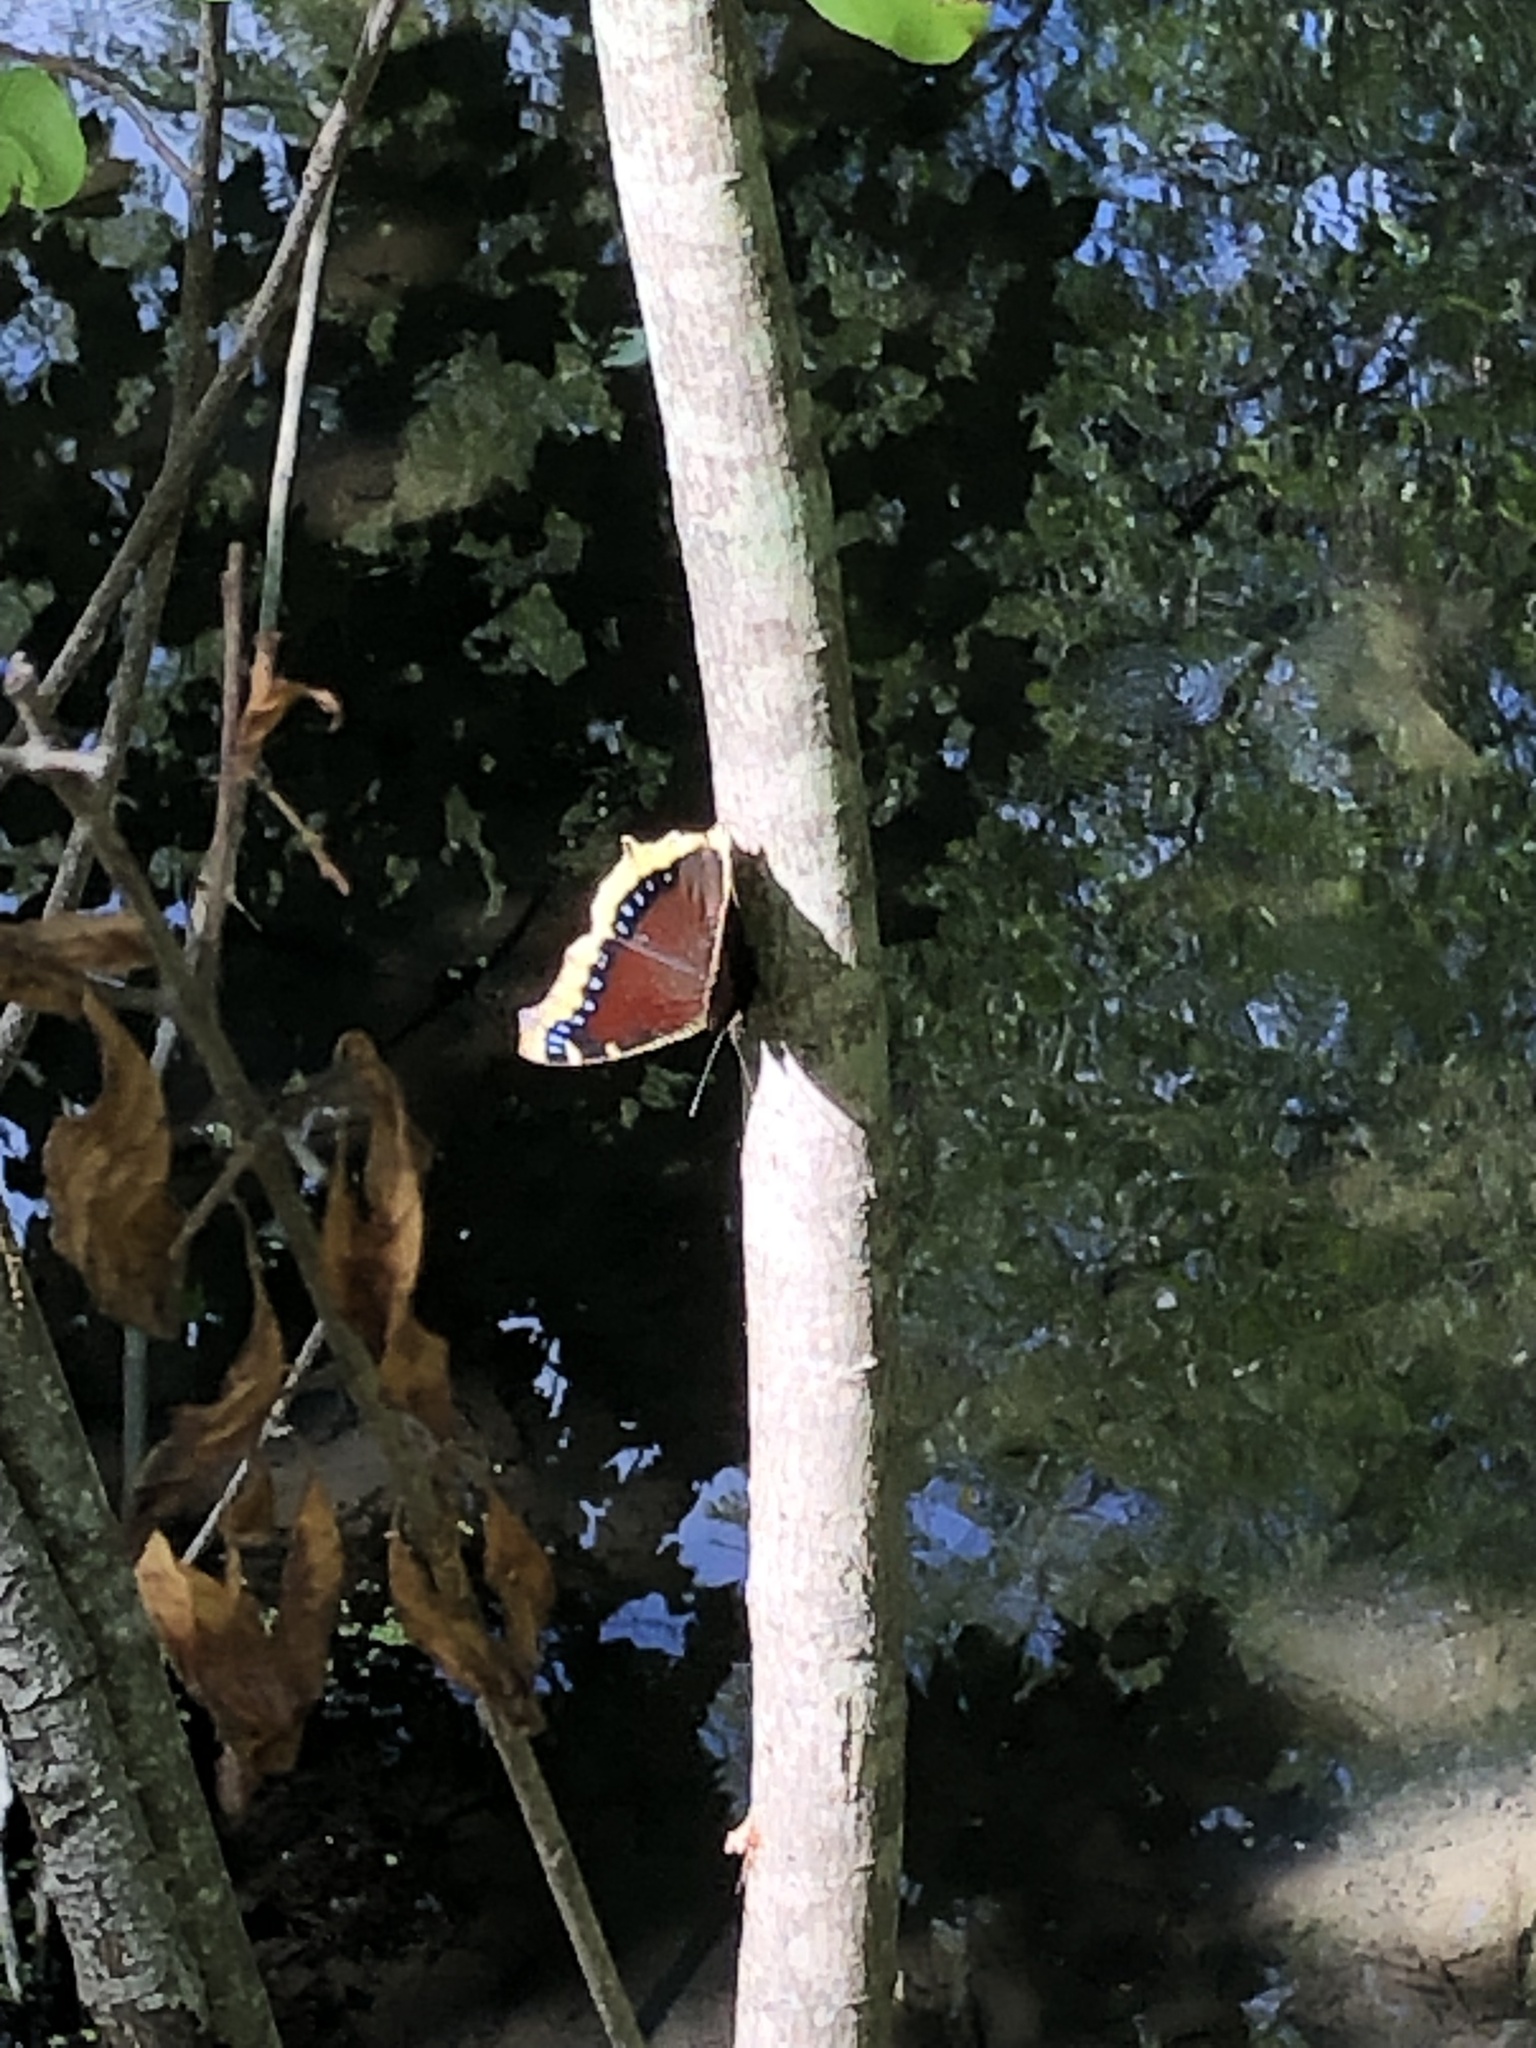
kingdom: Animalia
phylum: Arthropoda
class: Insecta
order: Lepidoptera
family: Nymphalidae
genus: Nymphalis
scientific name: Nymphalis antiopa
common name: Camberwell beauty
